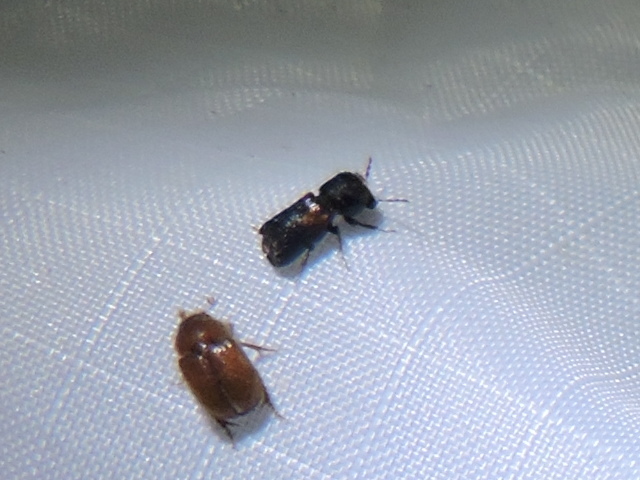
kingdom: Animalia
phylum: Arthropoda
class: Insecta
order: Coleoptera
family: Bostrichidae
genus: Xylobiops
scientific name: Xylobiops basilaris
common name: Red-shouldered bostrichid
